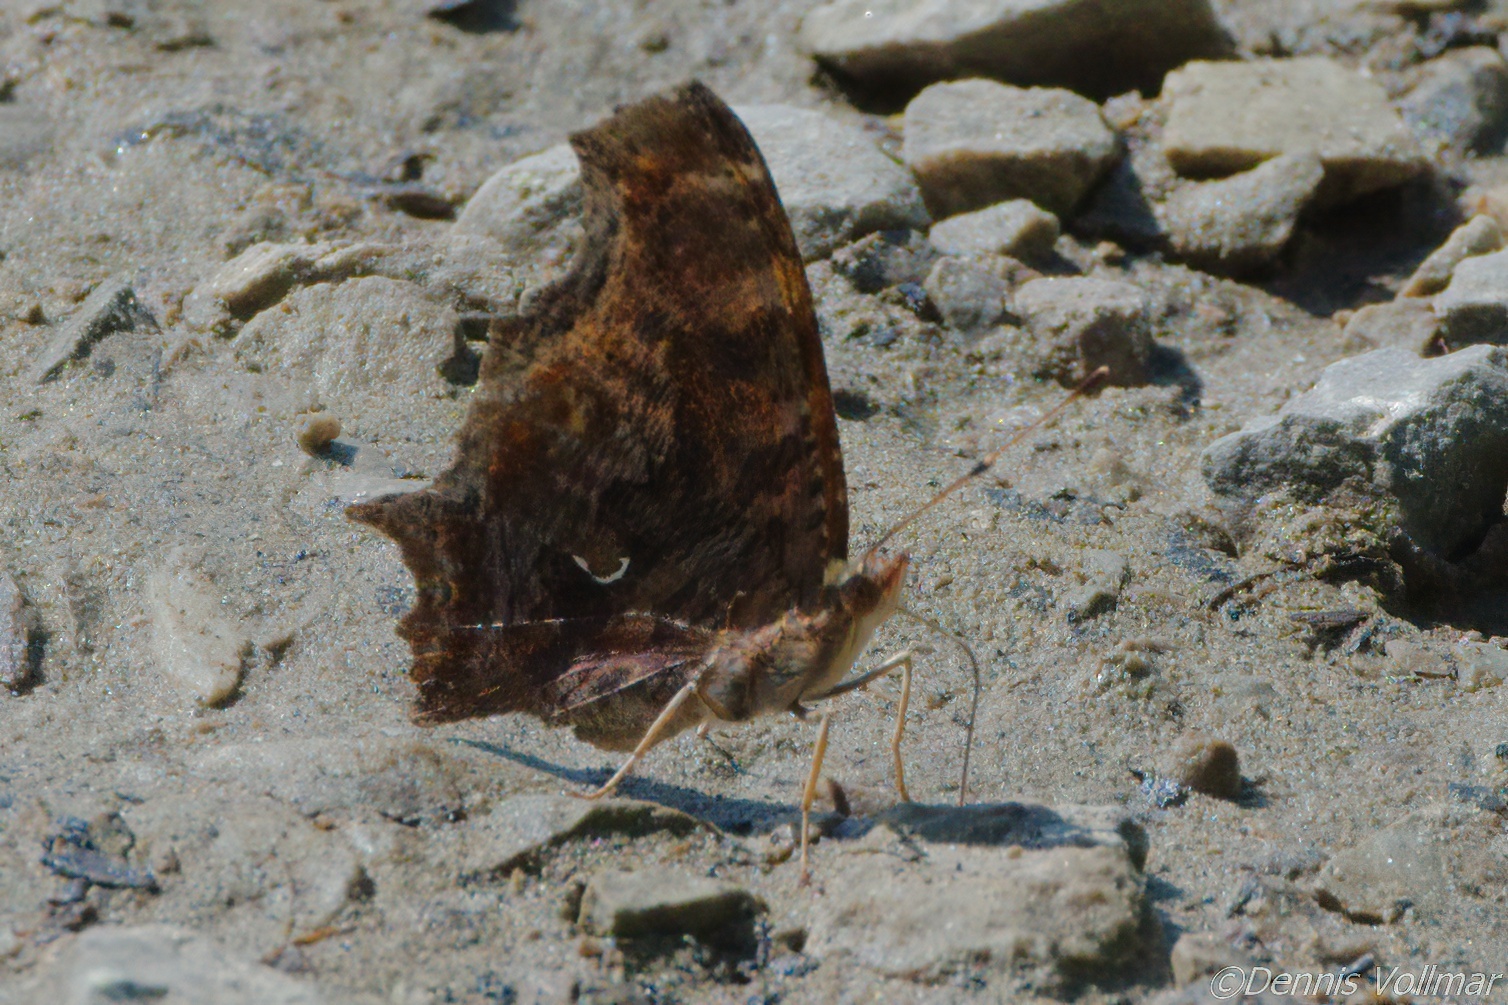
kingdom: Animalia
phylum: Arthropoda
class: Insecta
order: Lepidoptera
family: Nymphalidae
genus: Polygonia
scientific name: Polygonia comma
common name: Eastern comma
